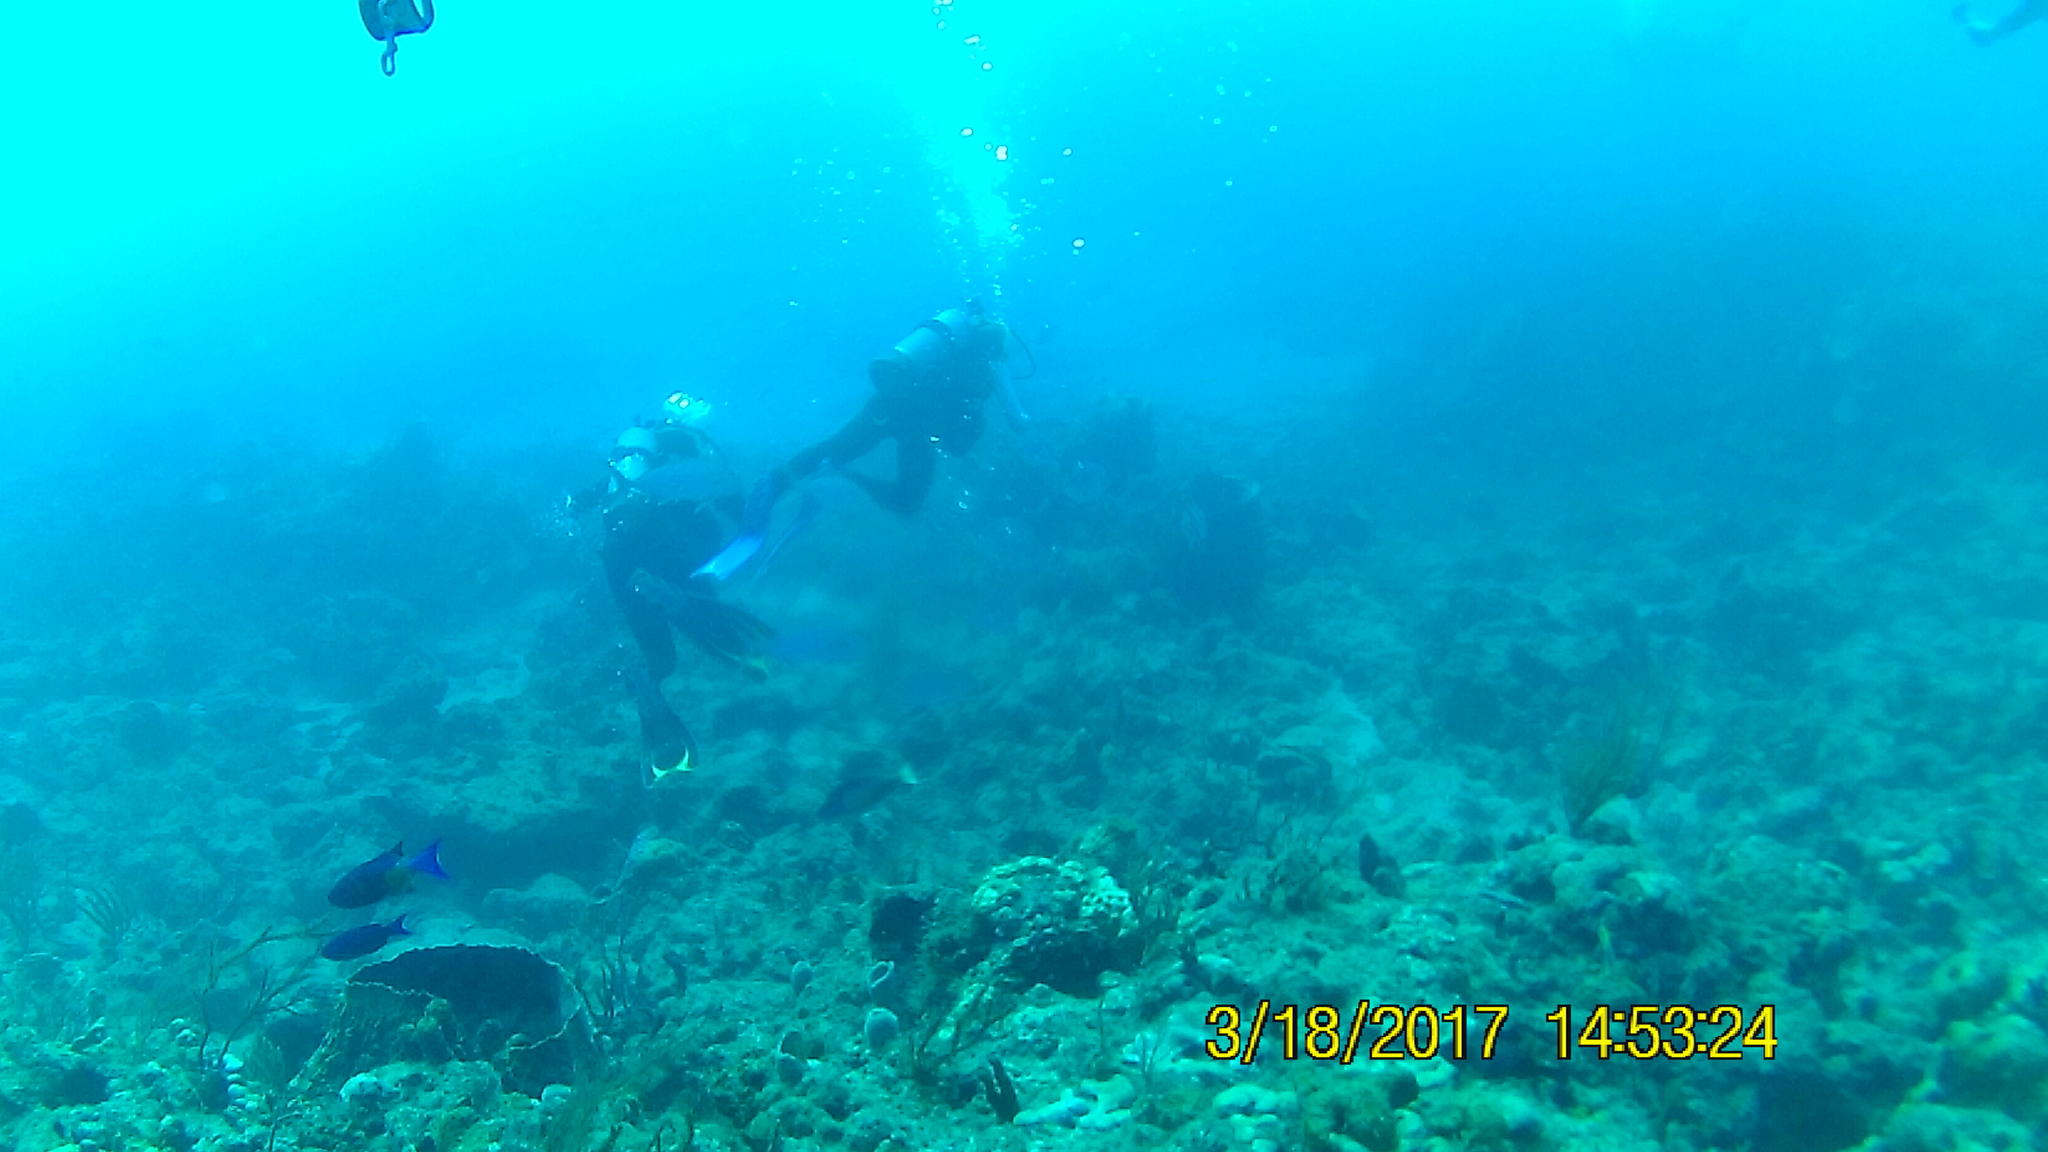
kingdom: Animalia
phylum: Chordata
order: Perciformes
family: Labridae
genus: Bodianus
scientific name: Bodianus
